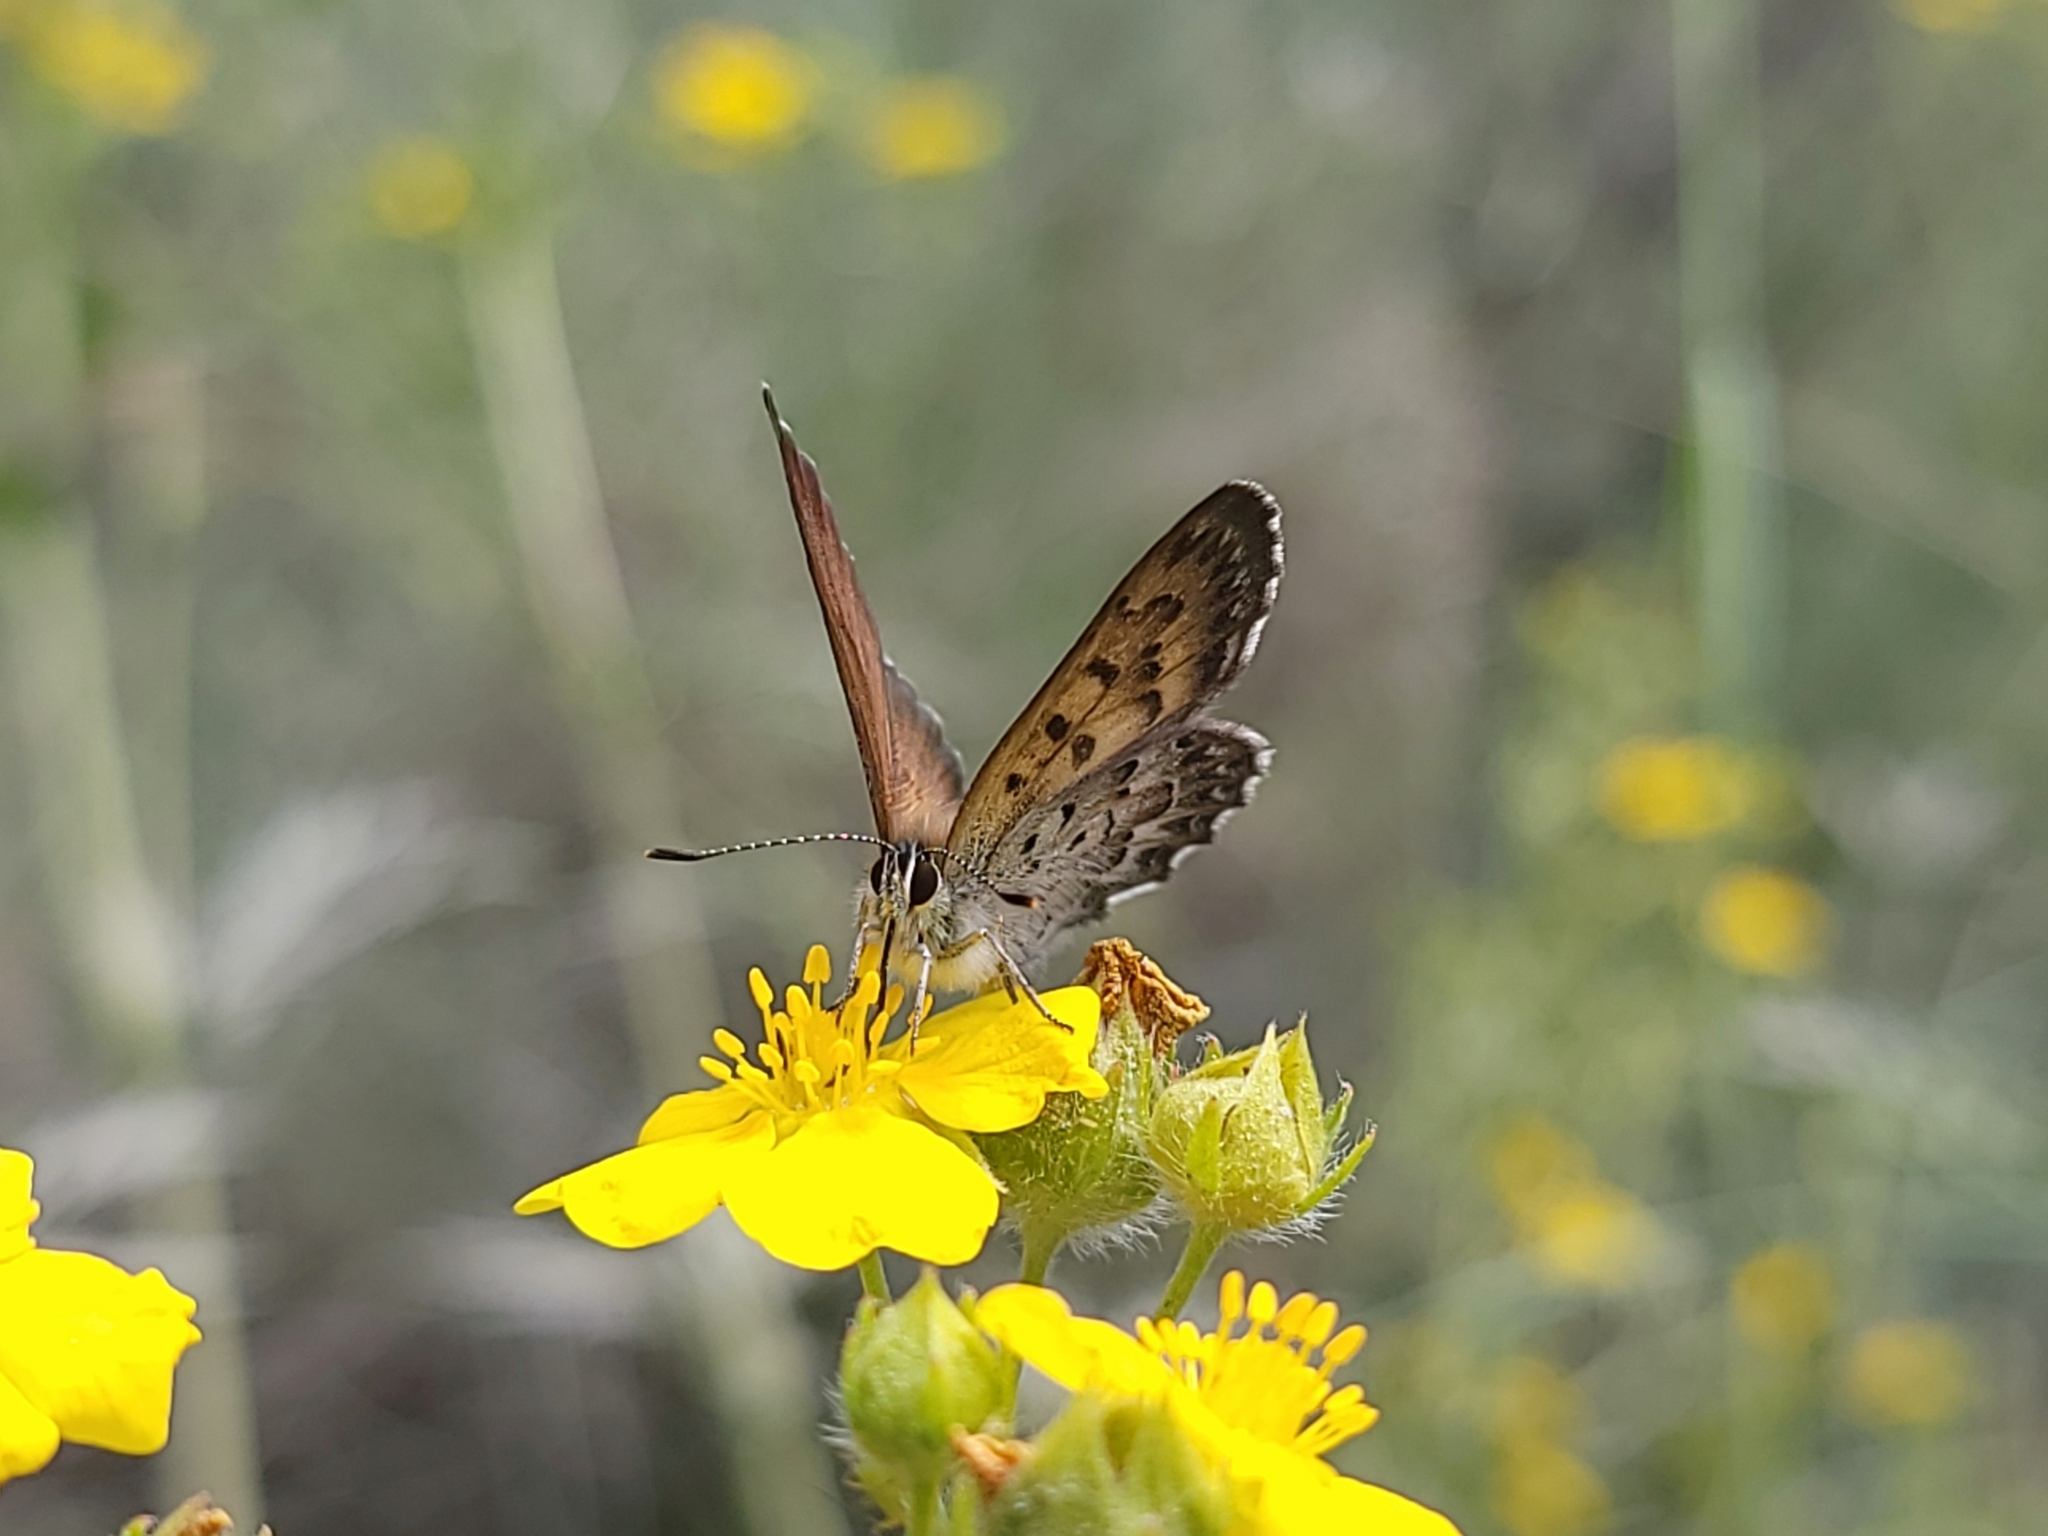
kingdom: Animalia
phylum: Arthropoda
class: Insecta
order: Lepidoptera
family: Lycaenidae
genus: Tharsalea
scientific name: Tharsalea mariposa
